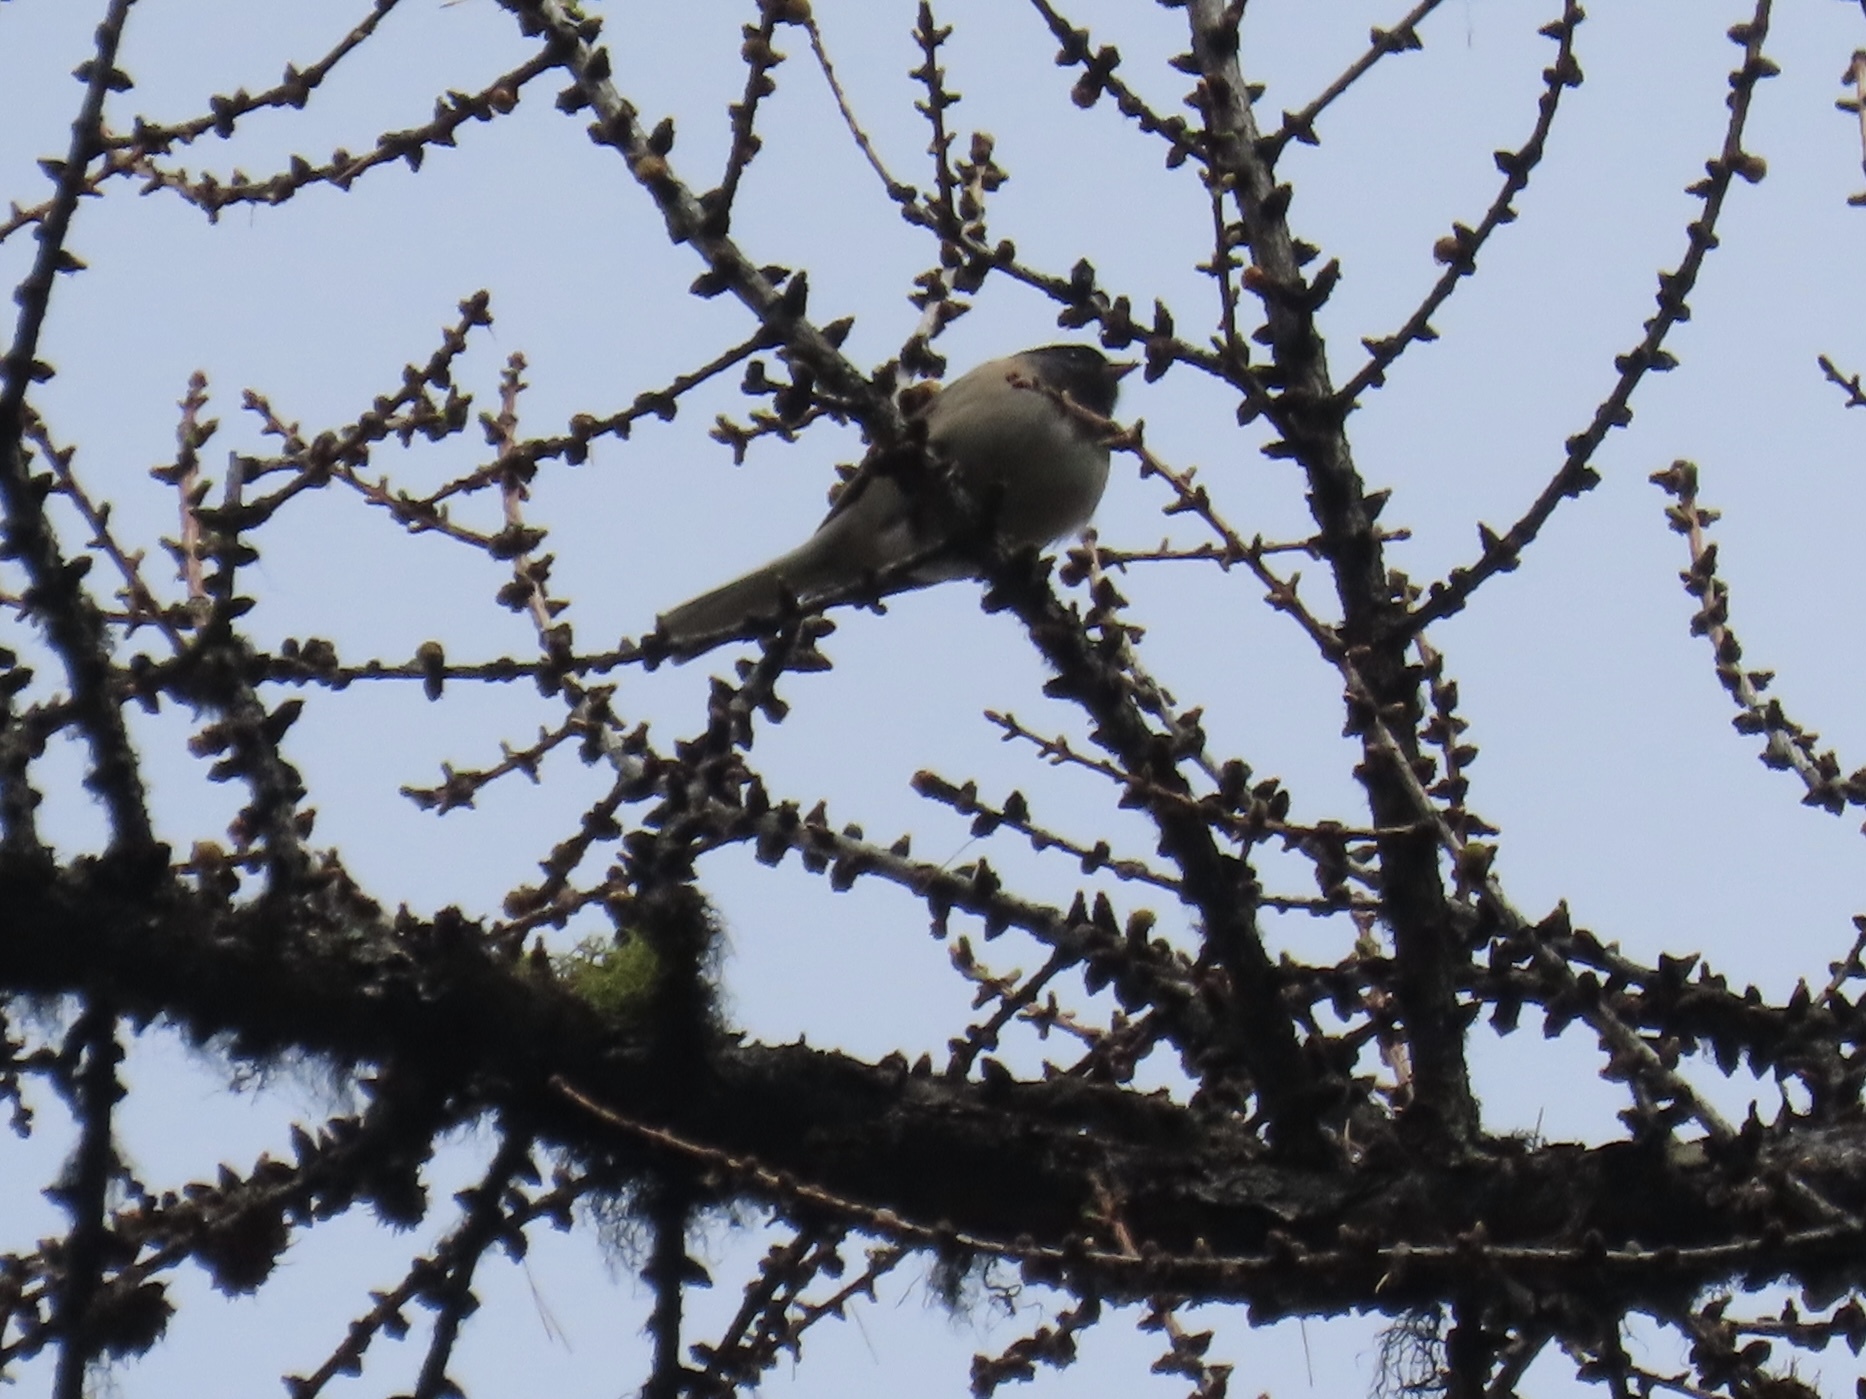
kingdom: Animalia
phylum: Chordata
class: Aves
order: Passeriformes
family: Passerellidae
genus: Junco
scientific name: Junco hyemalis
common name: Dark-eyed junco
